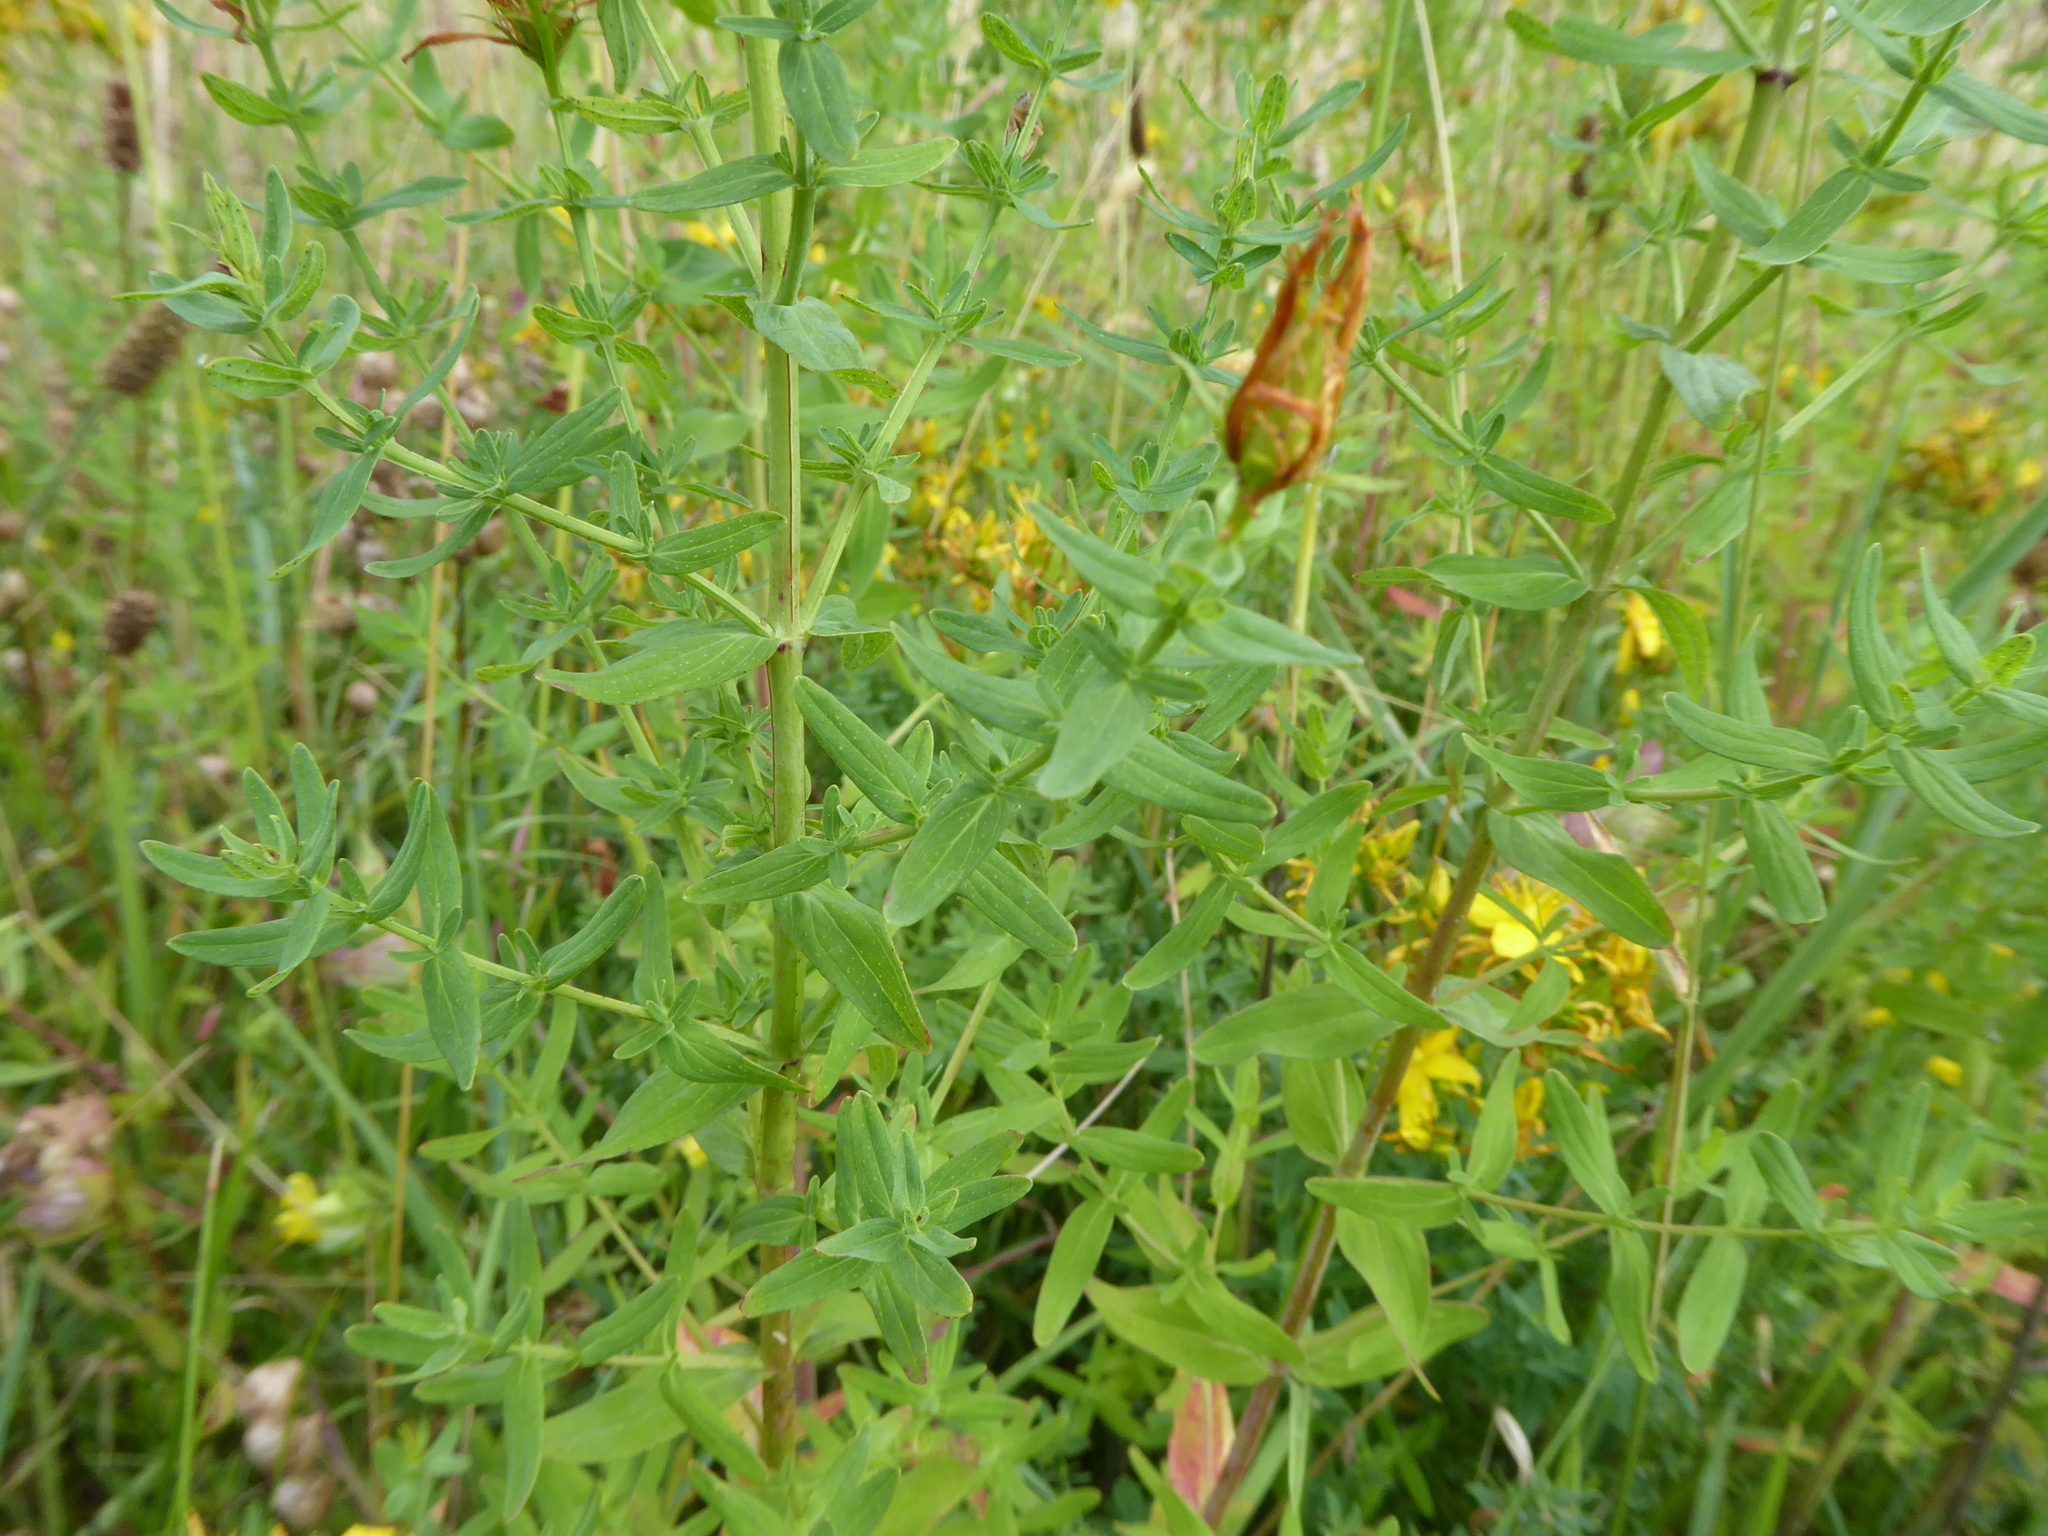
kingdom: Plantae
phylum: Tracheophyta
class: Magnoliopsida
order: Malpighiales
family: Hypericaceae
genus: Hypericum
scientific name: Hypericum perforatum
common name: Common st. johnswort
